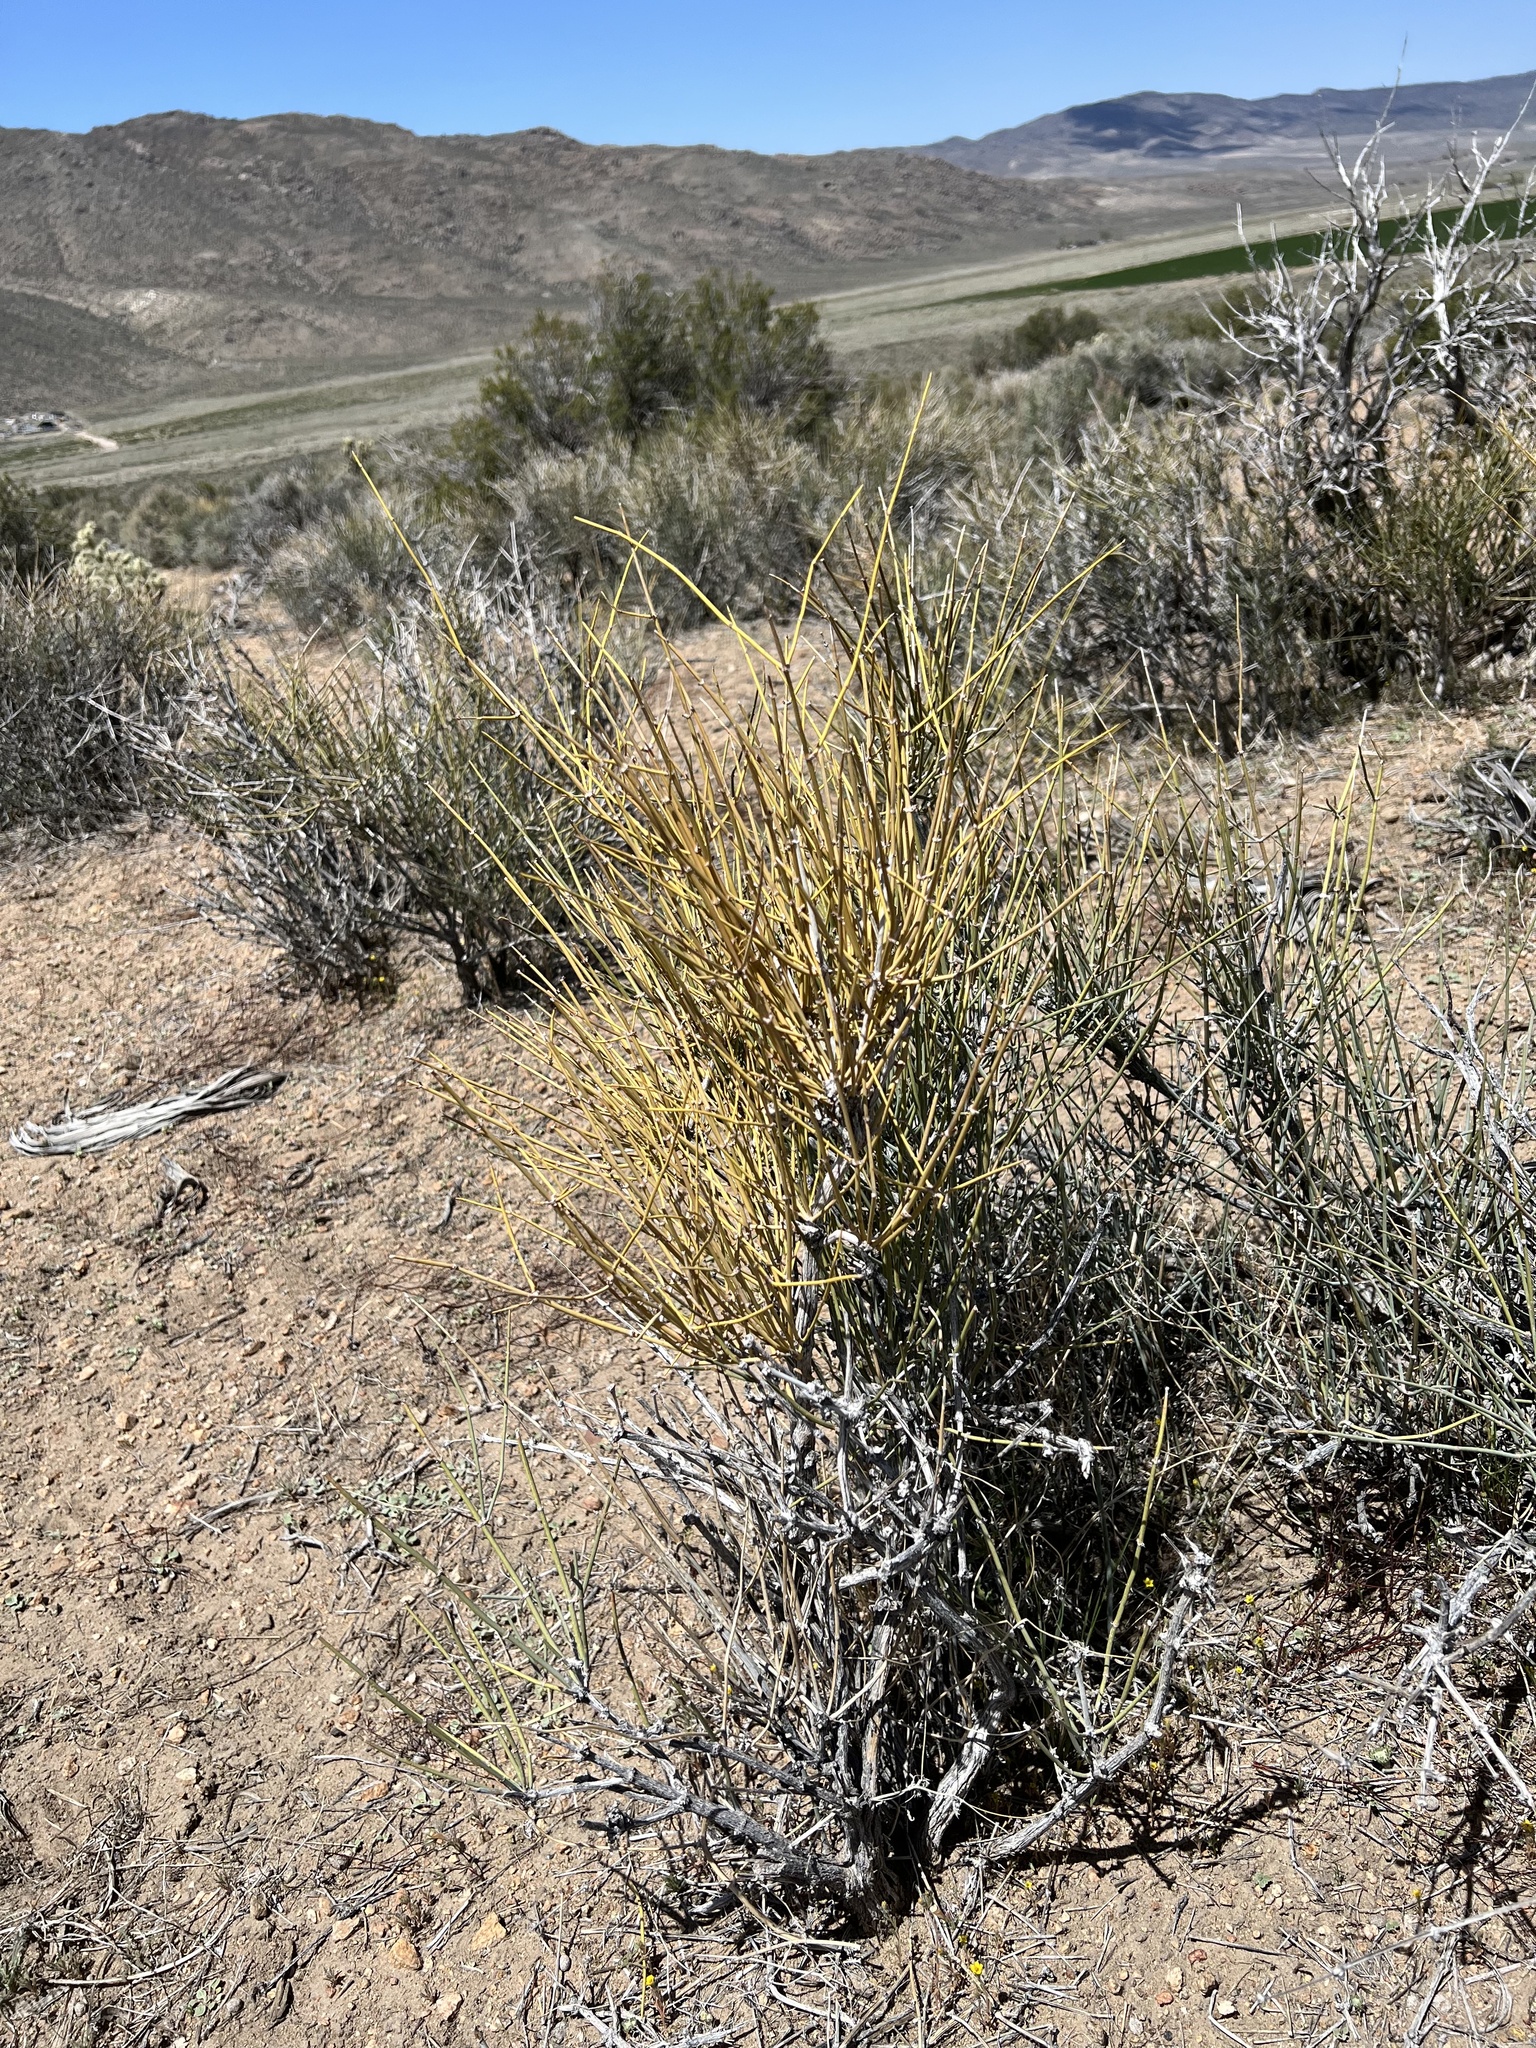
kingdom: Plantae
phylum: Tracheophyta
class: Gnetopsida
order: Ephedrales
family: Ephedraceae
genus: Ephedra
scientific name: Ephedra viridis
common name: Green ephedra
